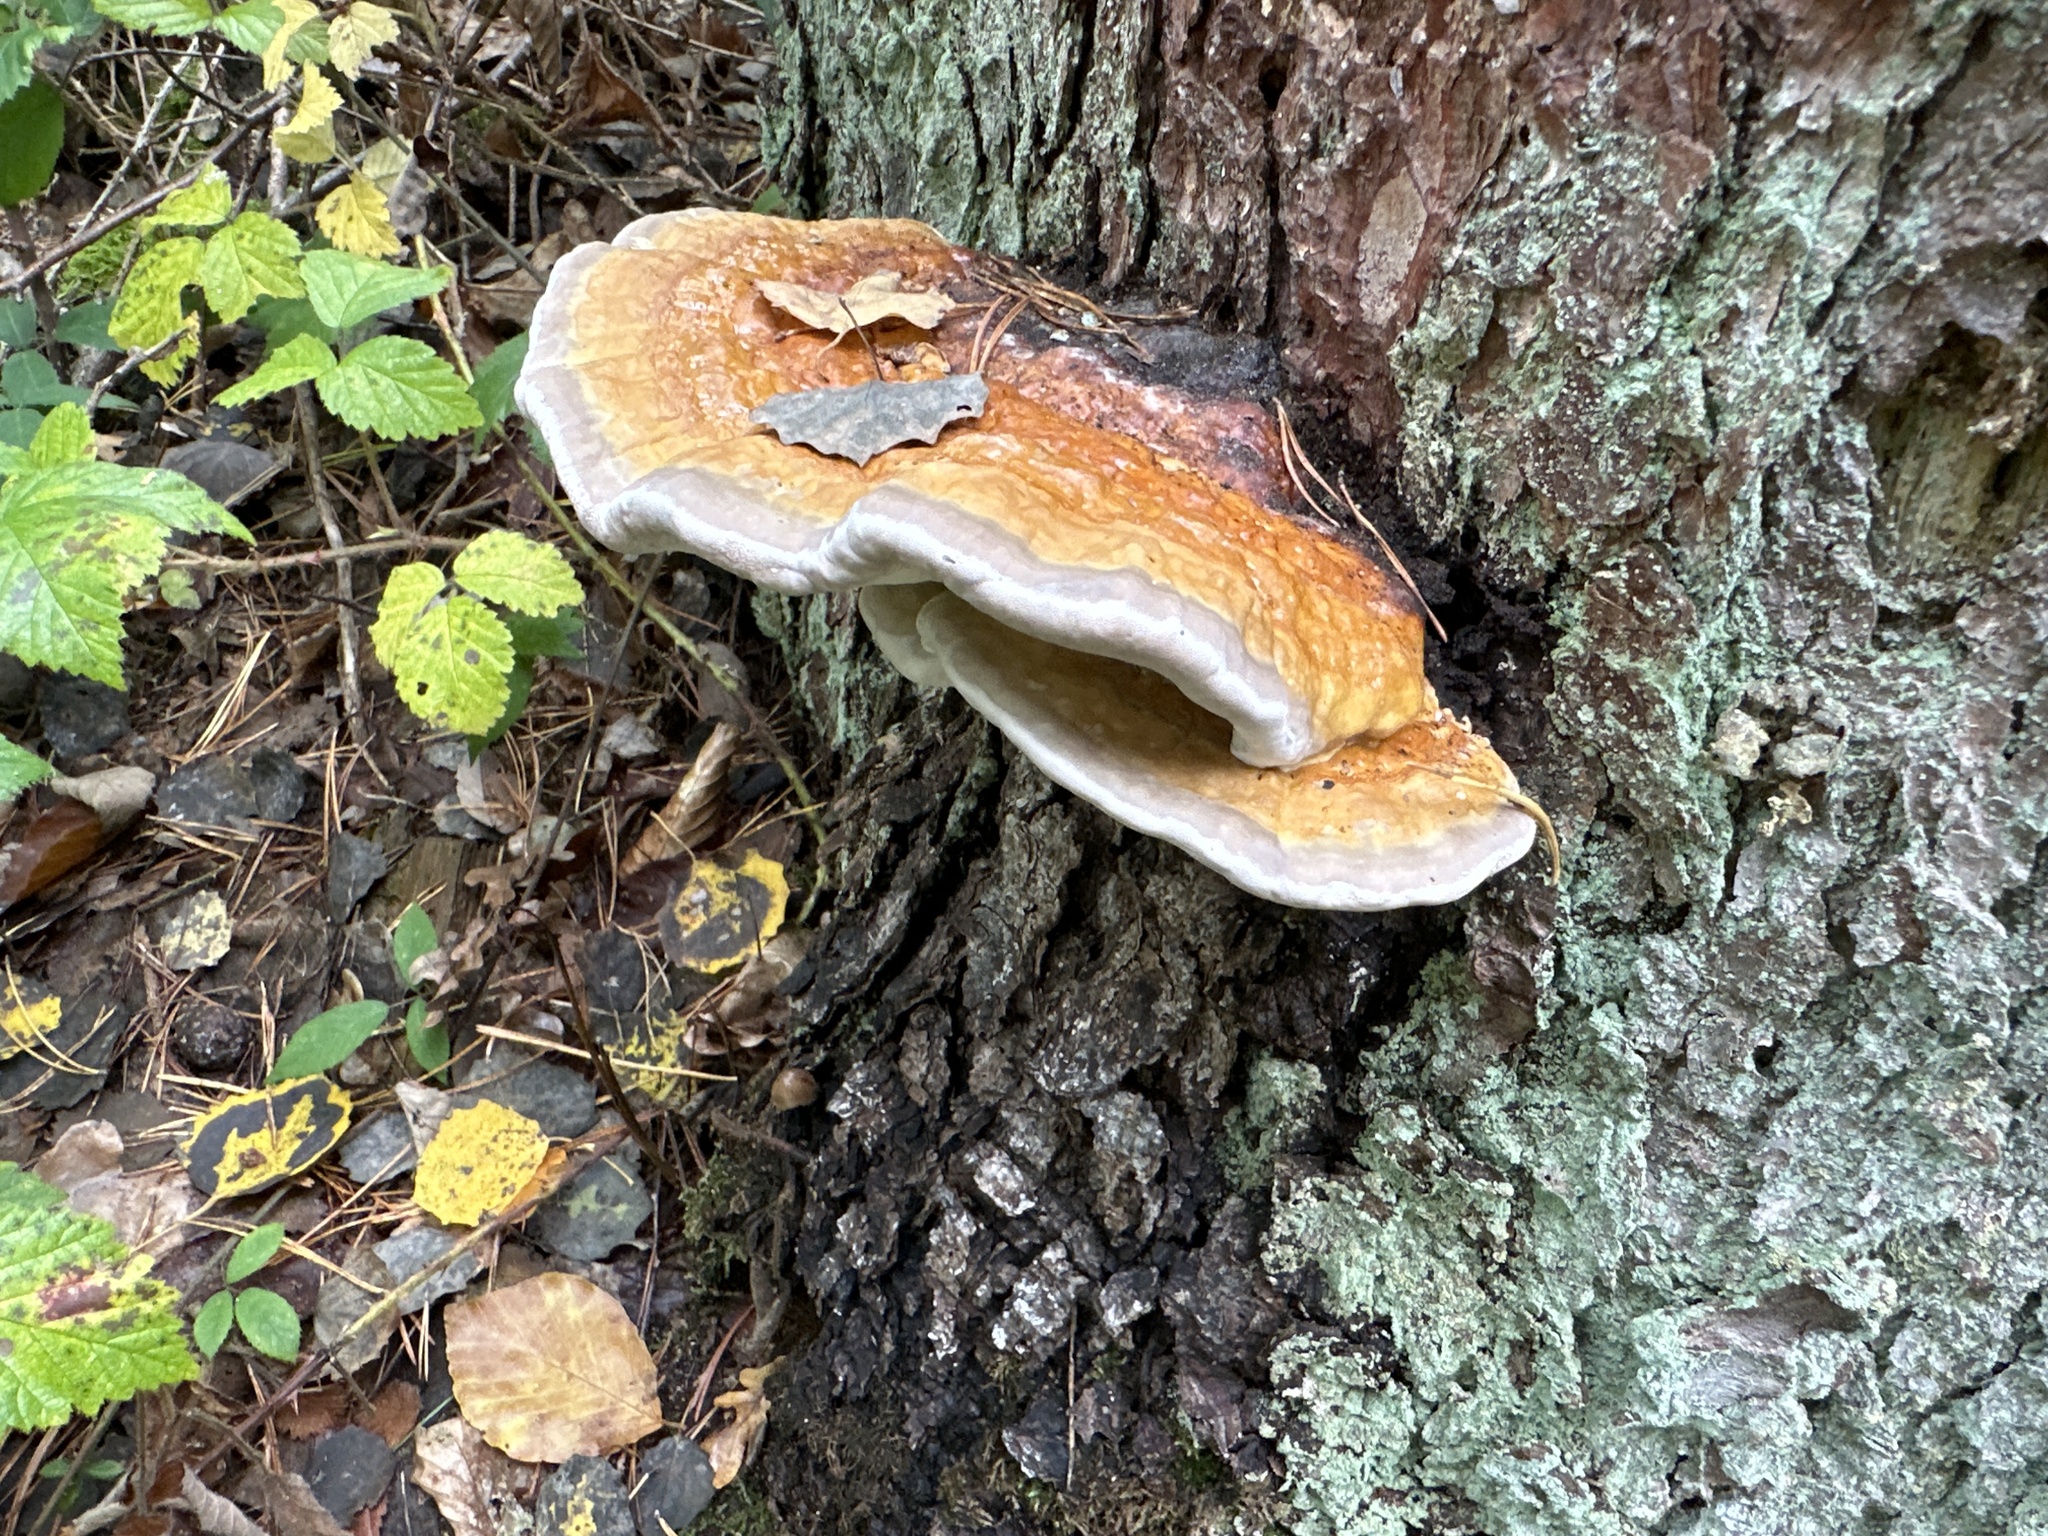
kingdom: Fungi
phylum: Basidiomycota
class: Agaricomycetes
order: Polyporales
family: Fomitopsidaceae
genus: Fomitopsis
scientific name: Fomitopsis pinicola
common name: Red-belted bracket
